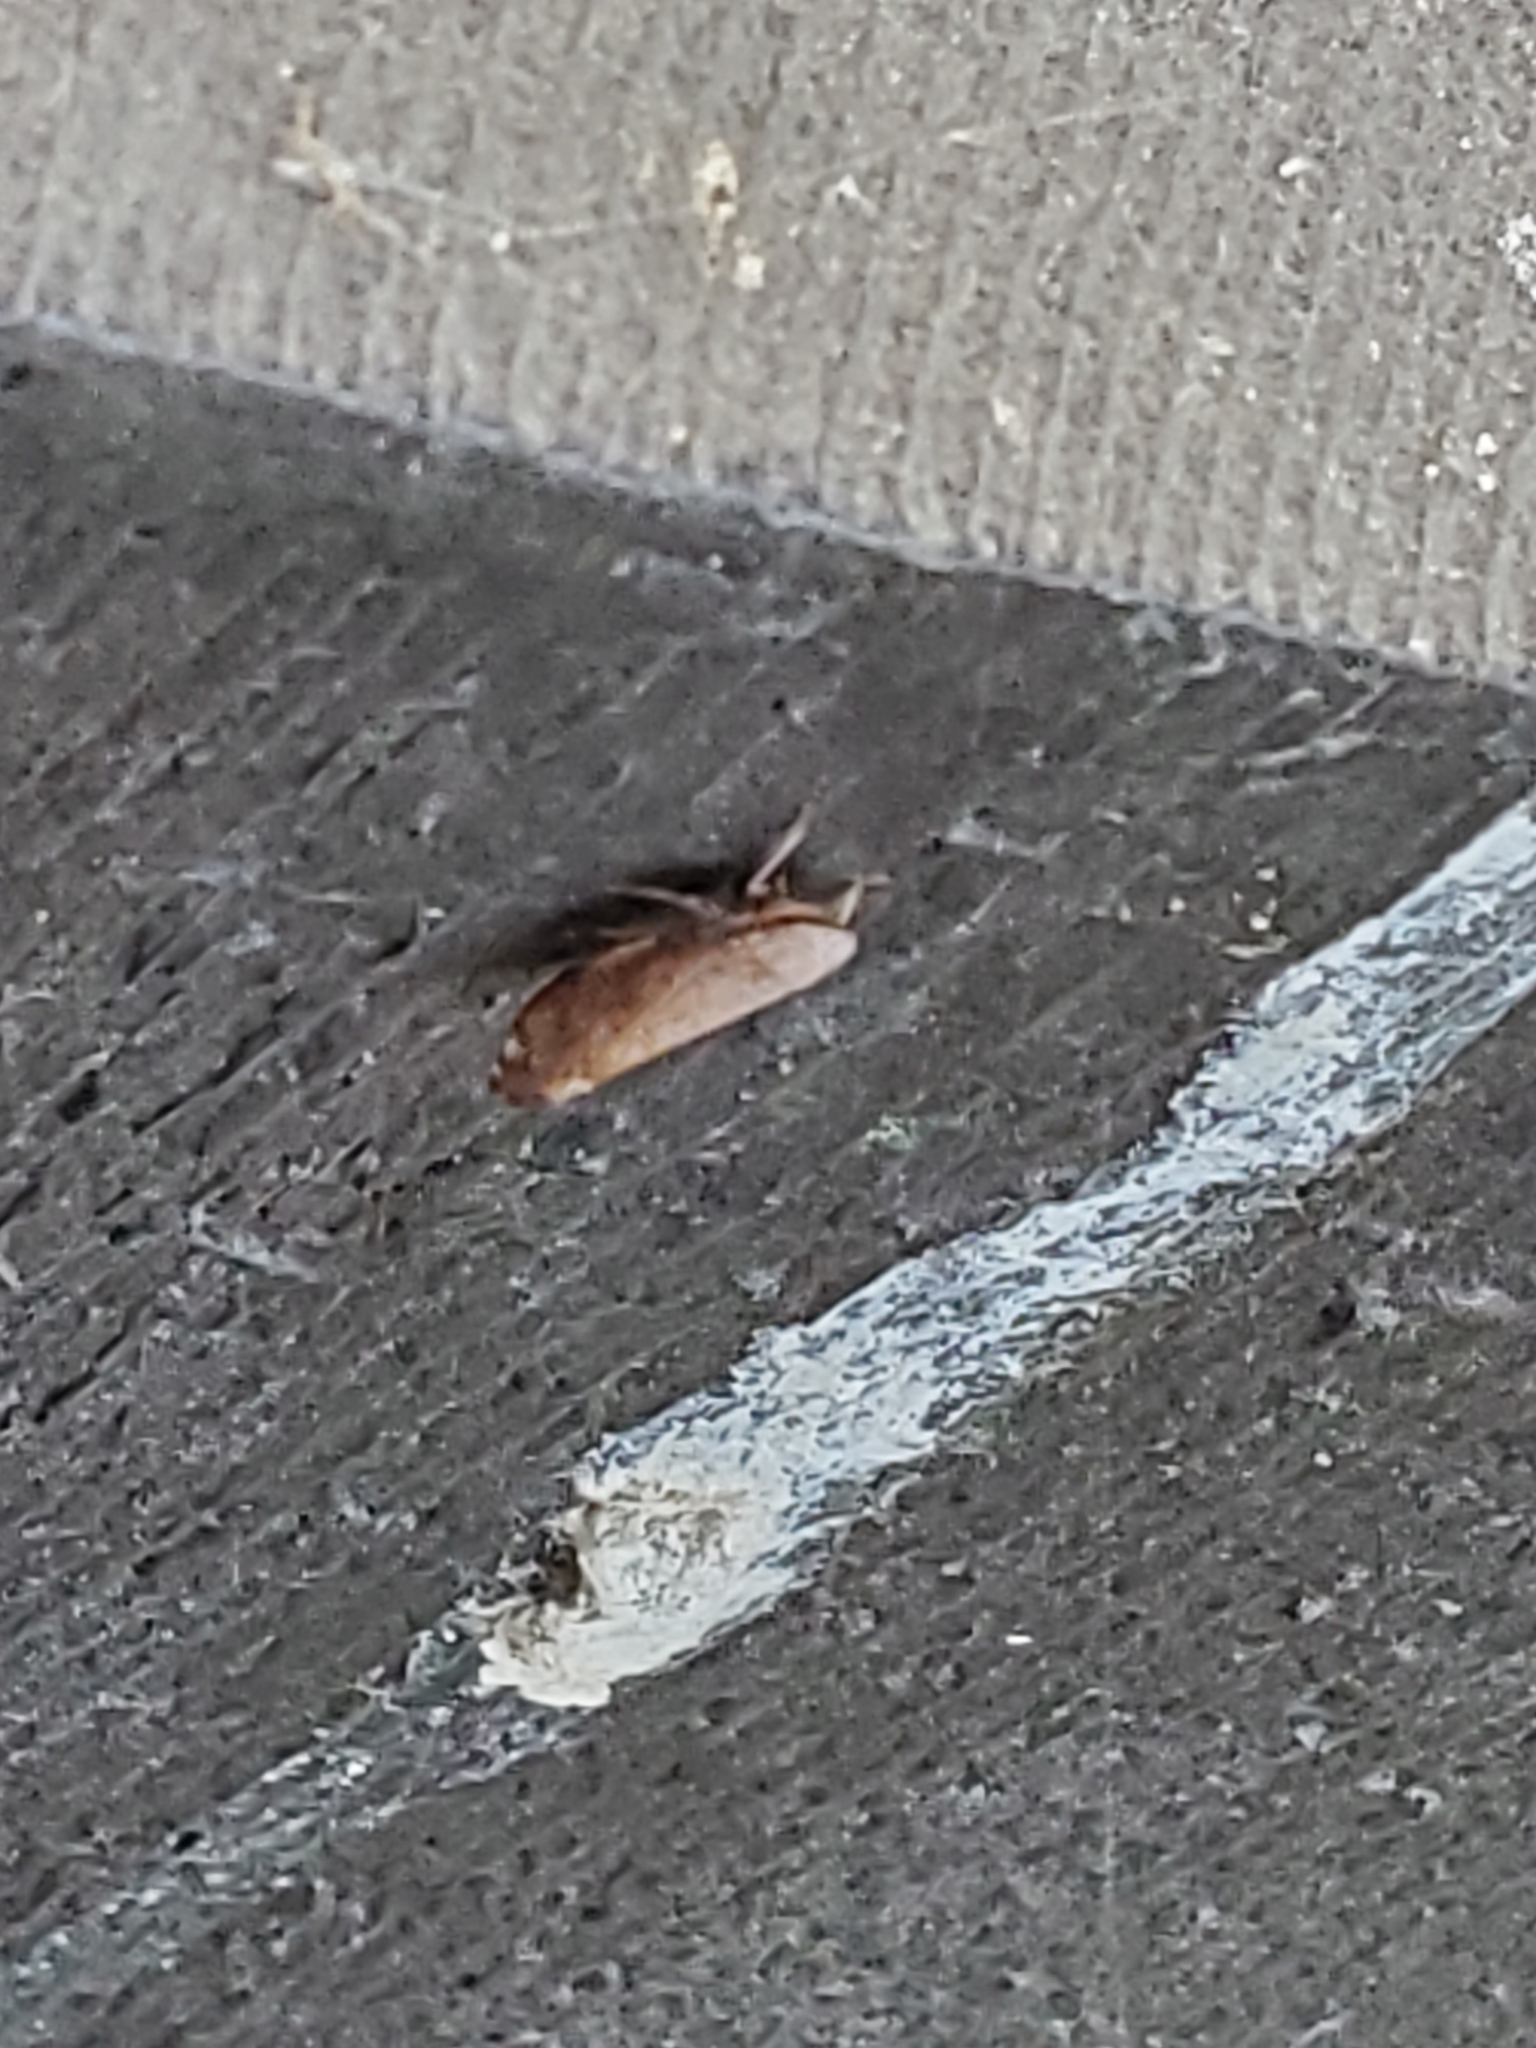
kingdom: Animalia
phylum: Arthropoda
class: Insecta
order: Hemiptera
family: Cicadellidae
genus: Fieberiella
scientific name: Fieberiella florii
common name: Flor’s leafhopper
